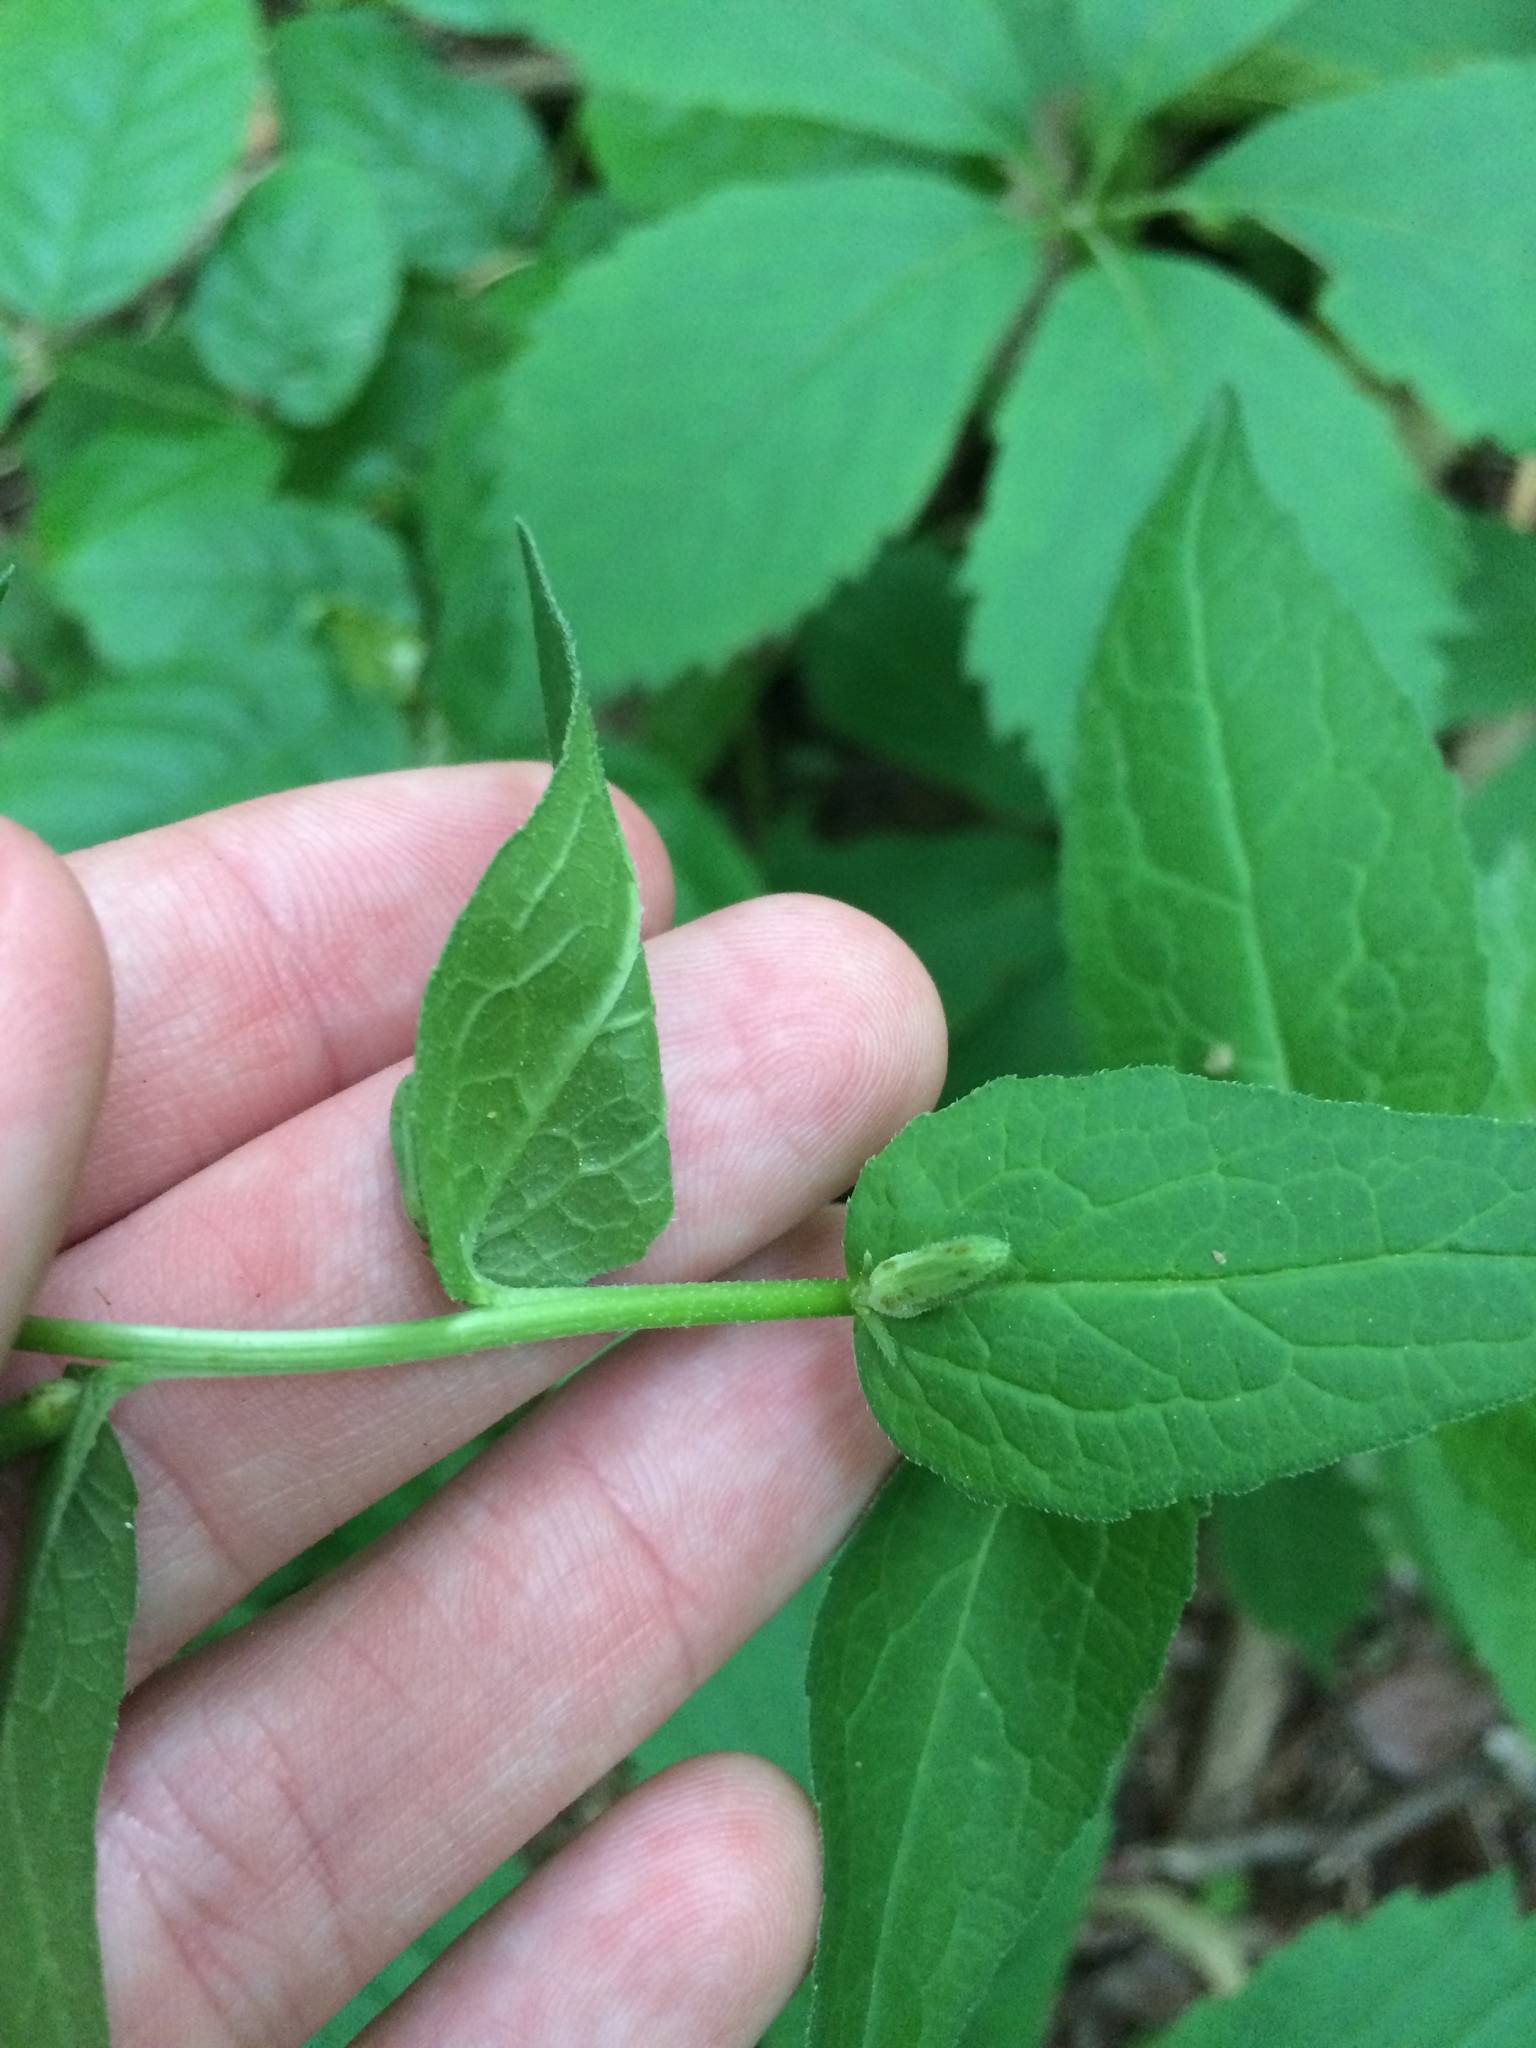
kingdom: Plantae
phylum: Tracheophyta
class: Magnoliopsida
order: Asterales
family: Campanulaceae
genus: Campanula
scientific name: Campanula rapunculoides
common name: Creeping bellflower
